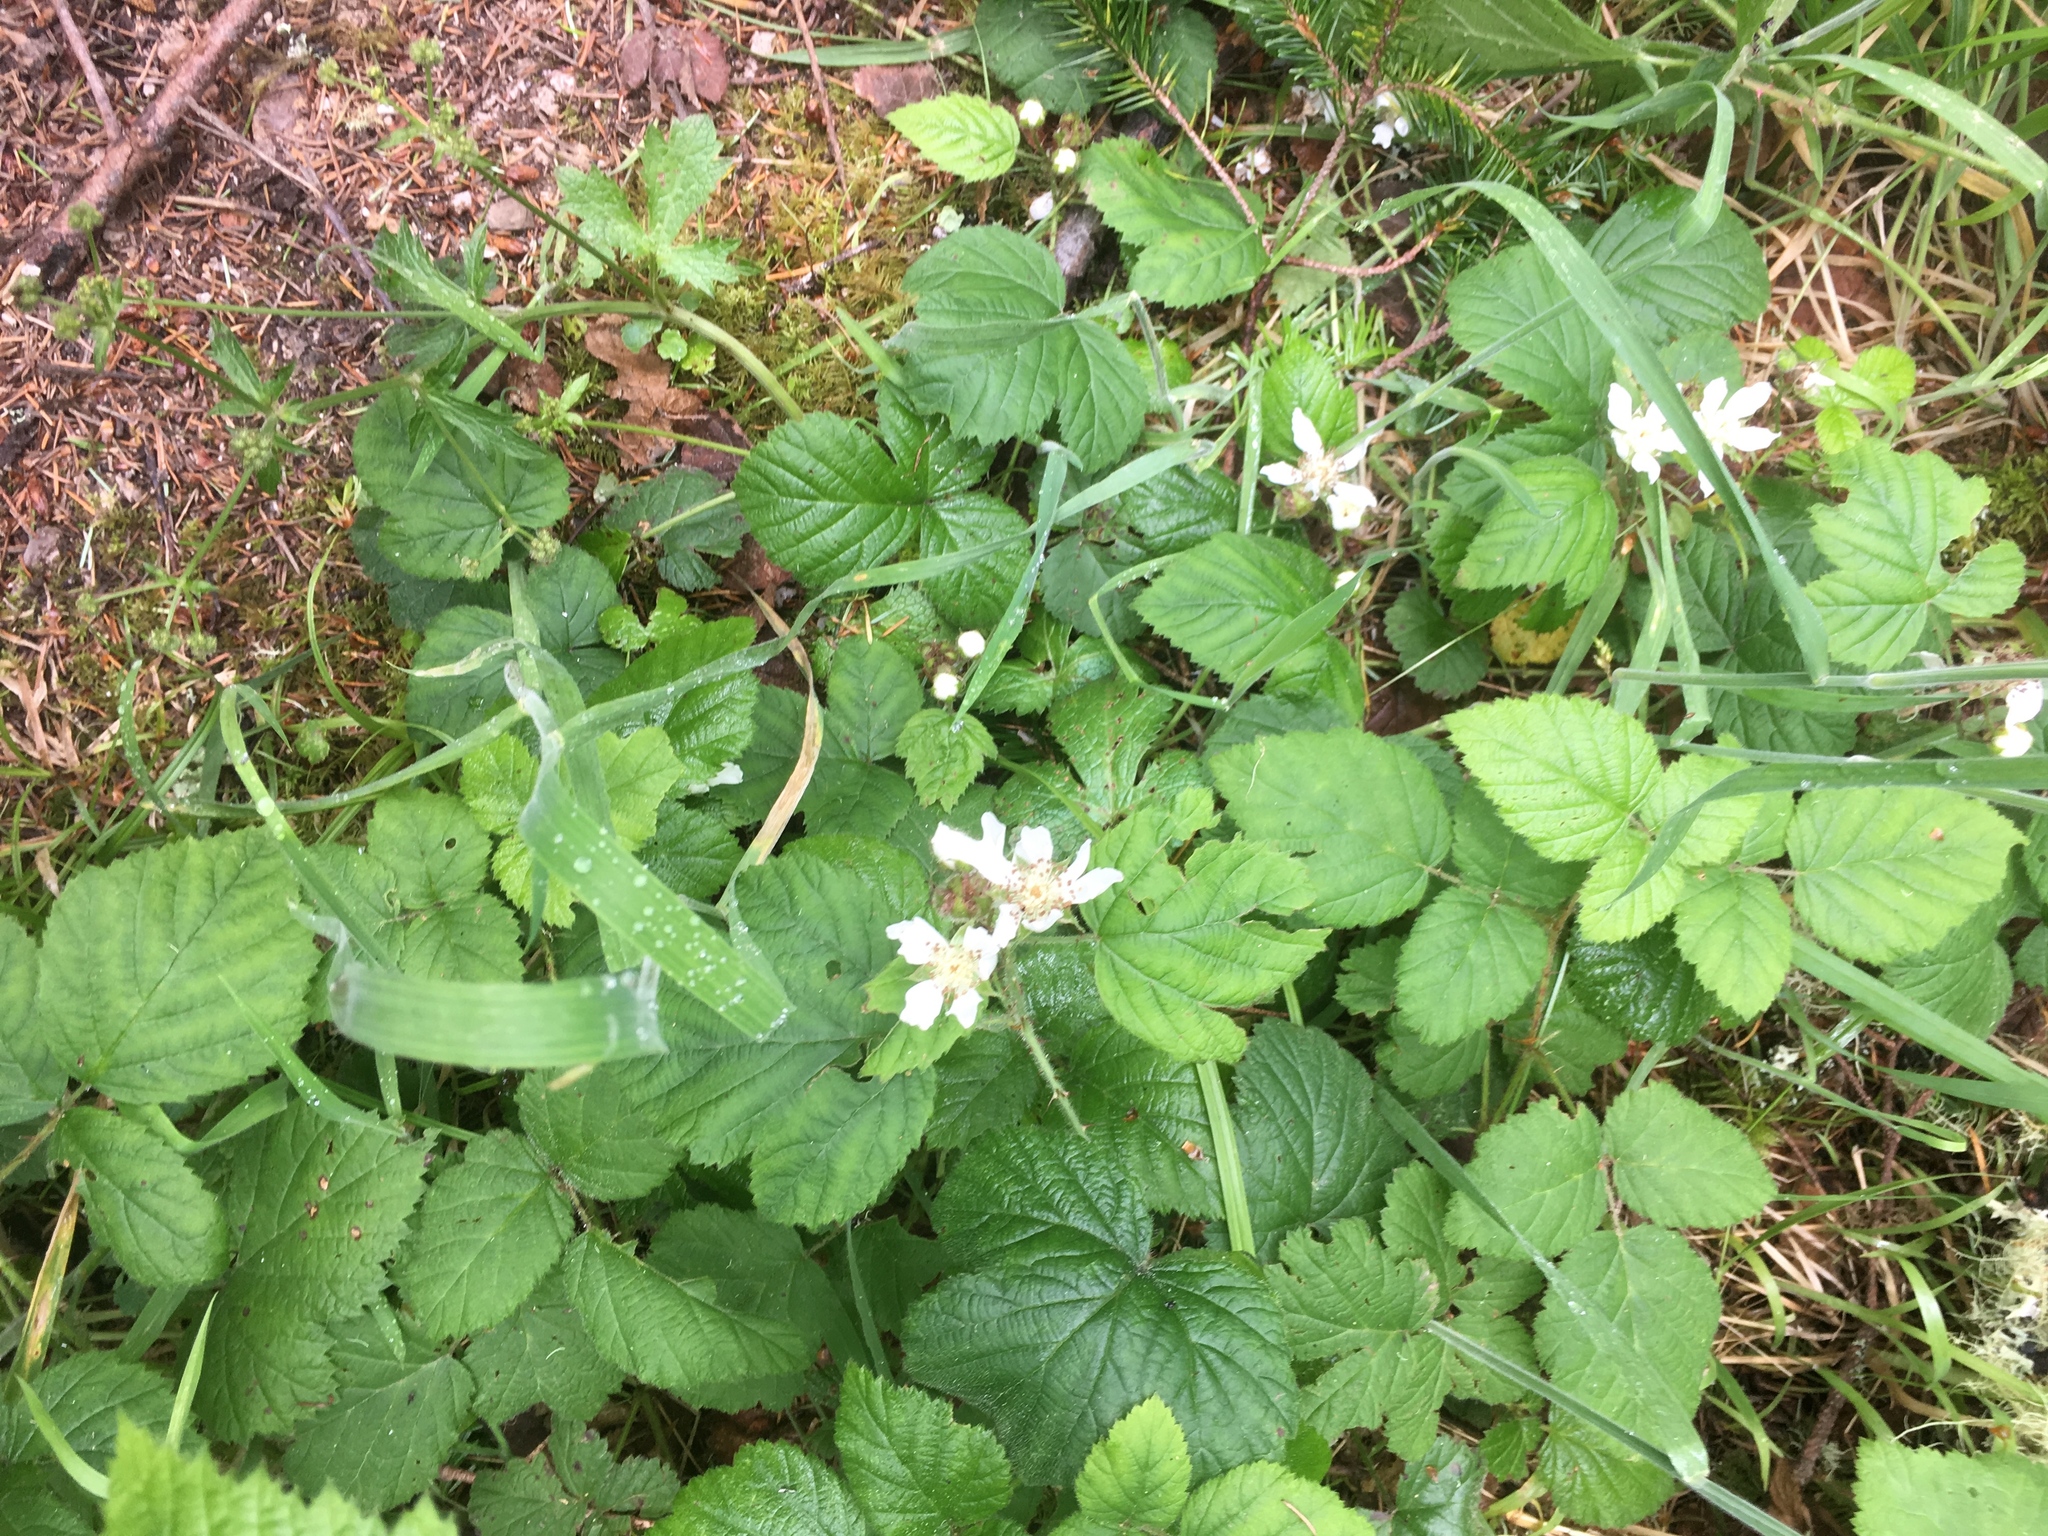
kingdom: Plantae
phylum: Tracheophyta
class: Magnoliopsida
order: Rosales
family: Rosaceae
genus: Rubus
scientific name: Rubus ursinus
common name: Pacific blackberry
